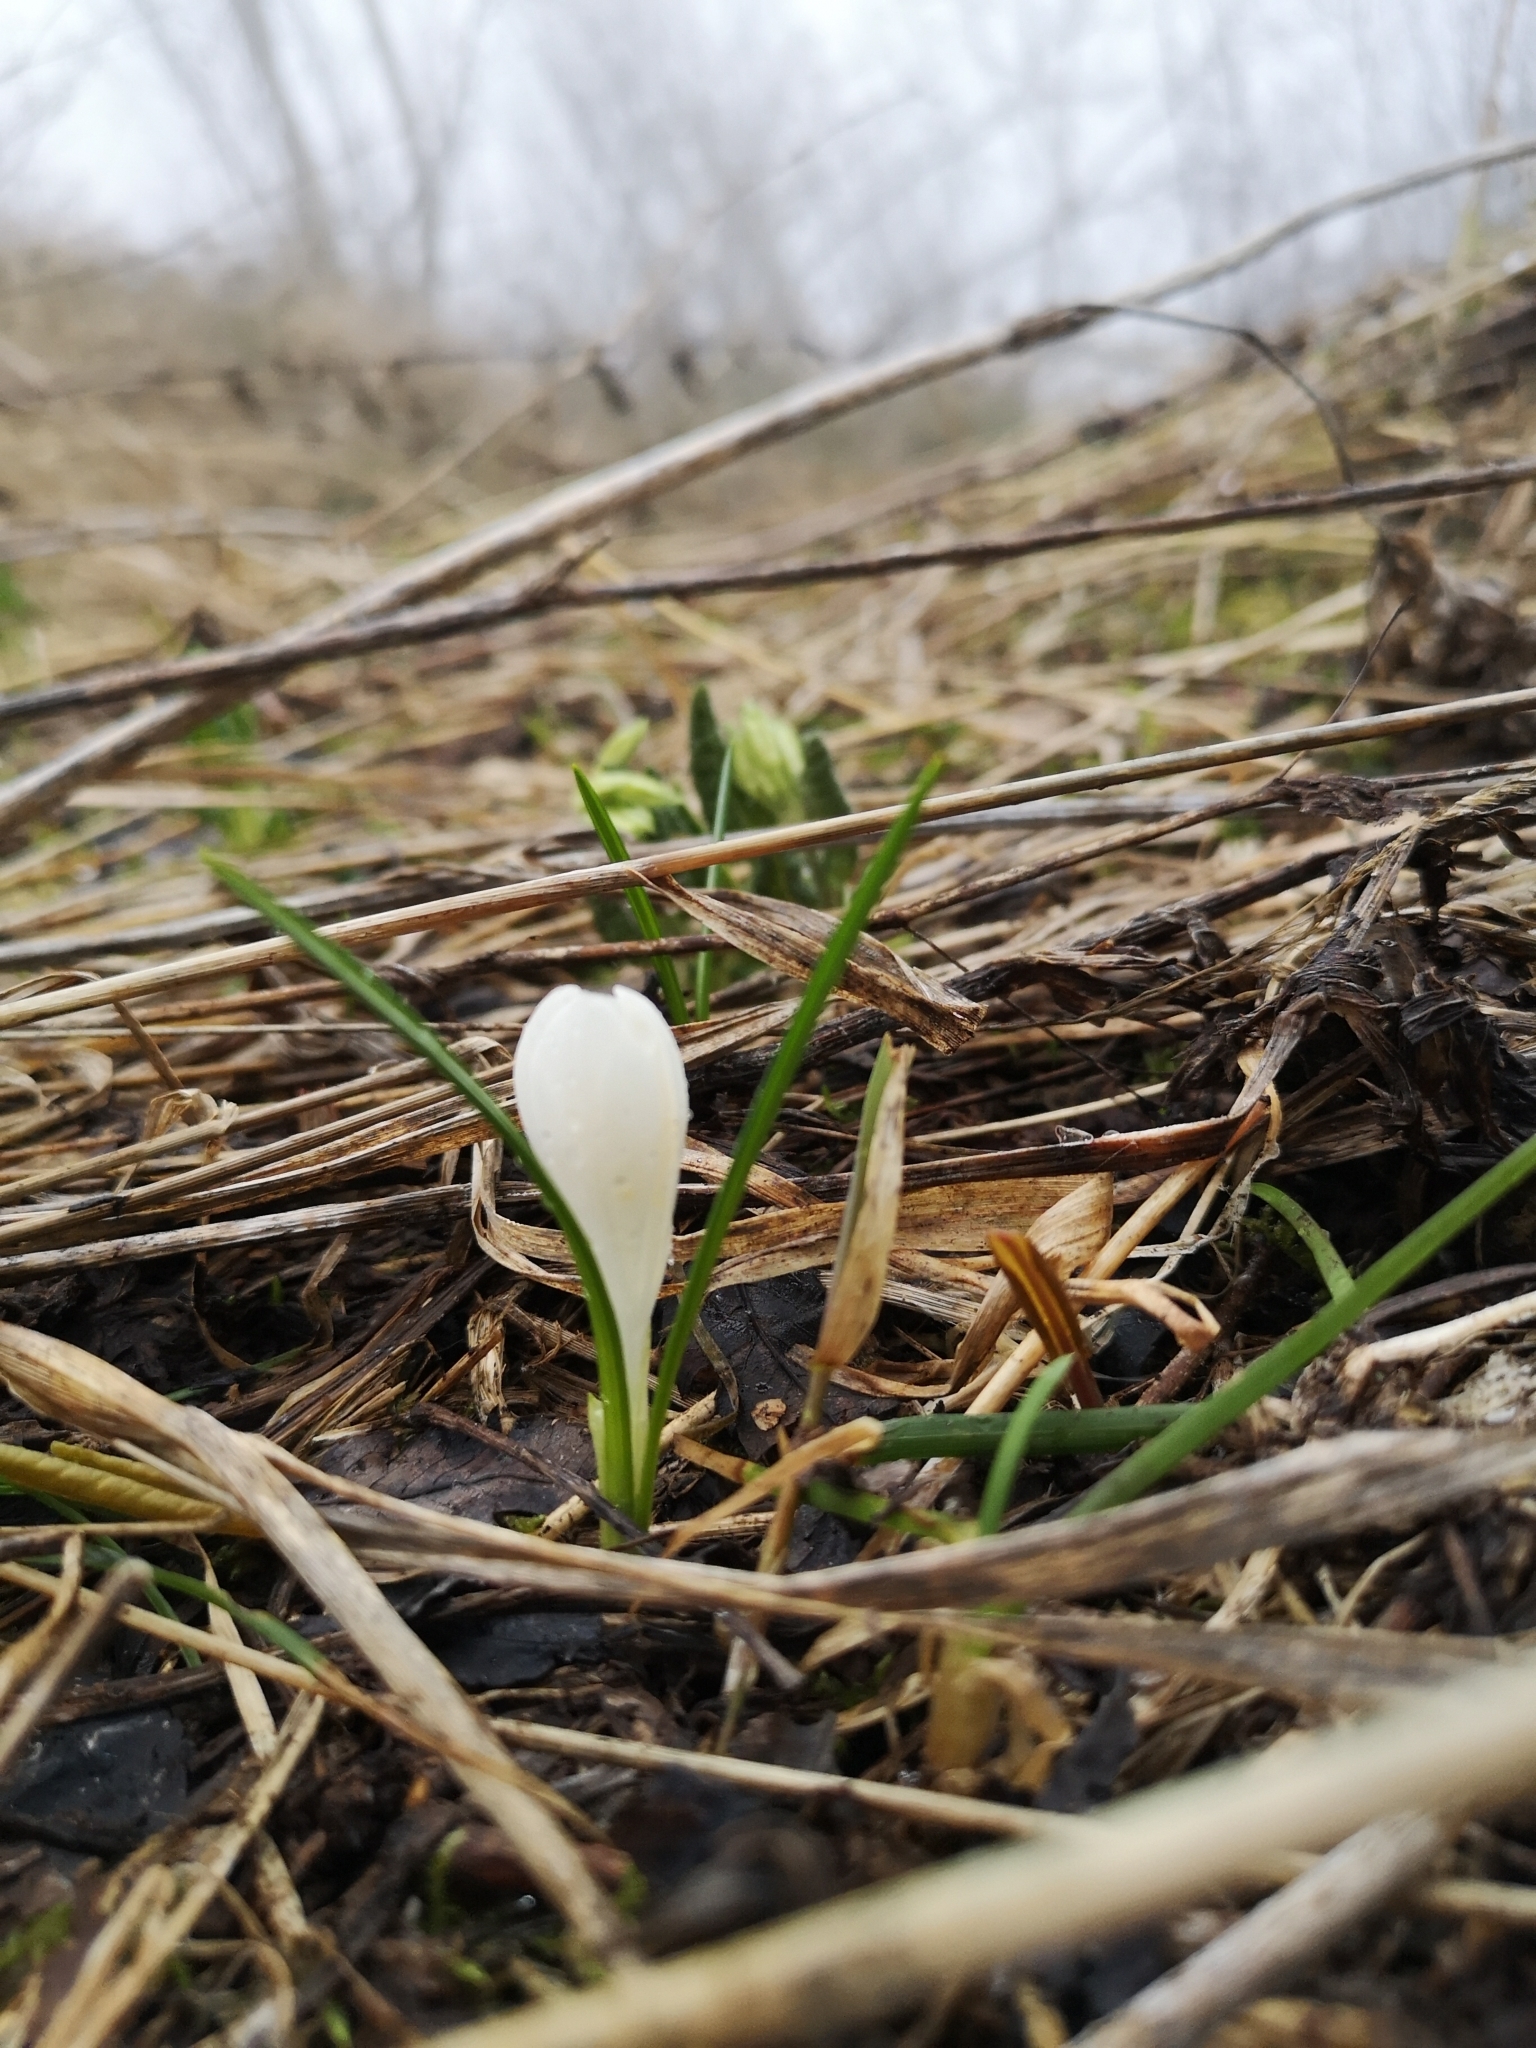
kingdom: Plantae
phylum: Tracheophyta
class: Liliopsida
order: Asparagales
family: Iridaceae
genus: Crocus
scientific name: Crocus vernus
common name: Spring crocus
